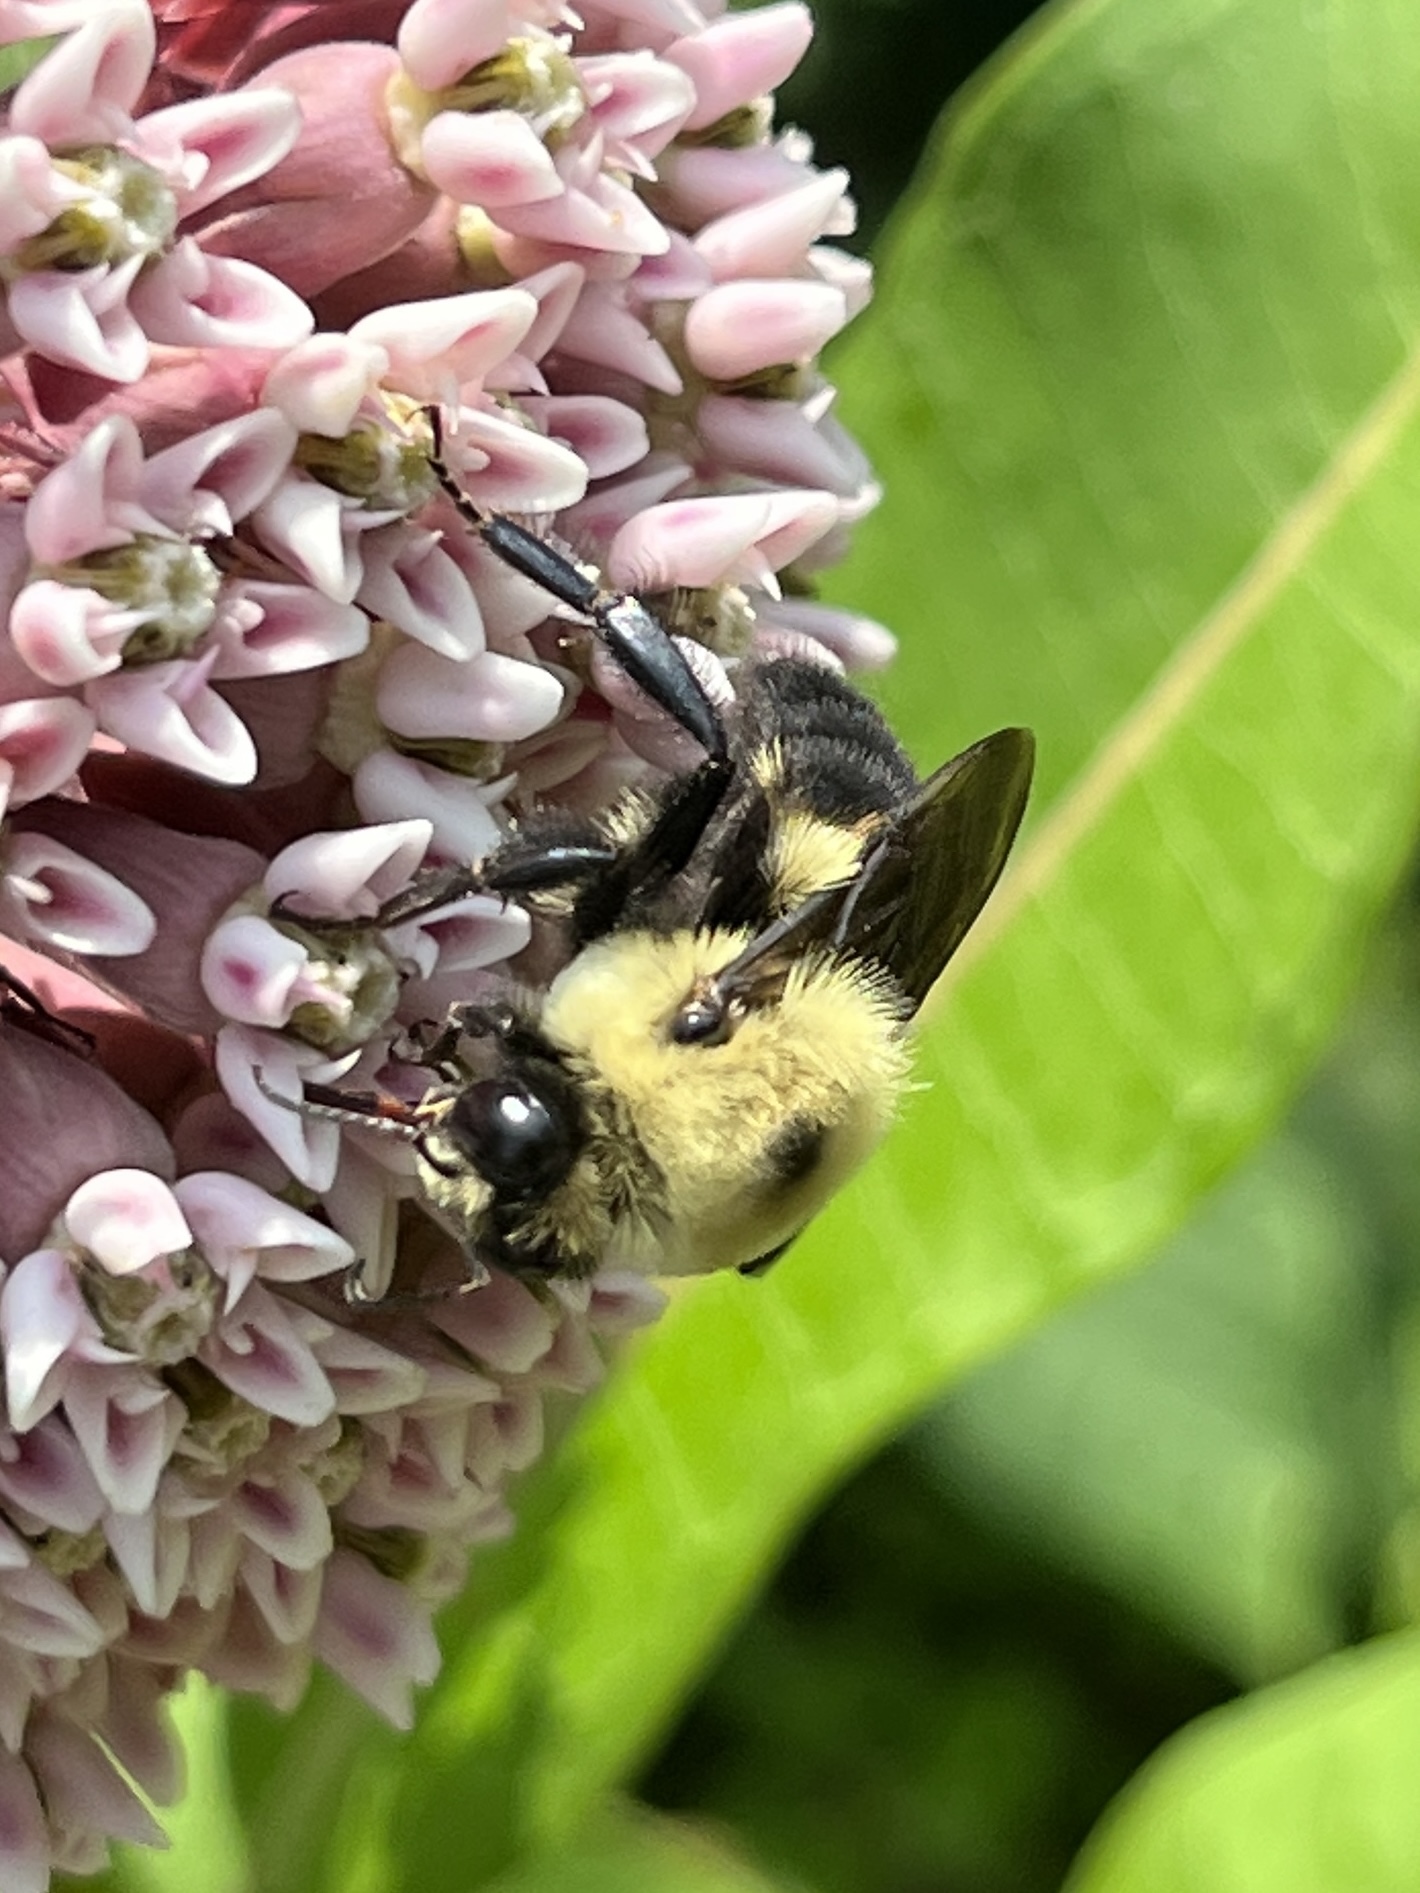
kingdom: Animalia
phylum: Arthropoda
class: Insecta
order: Hymenoptera
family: Apidae
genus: Bombus
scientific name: Bombus griseocollis
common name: Brown-belted bumble bee
